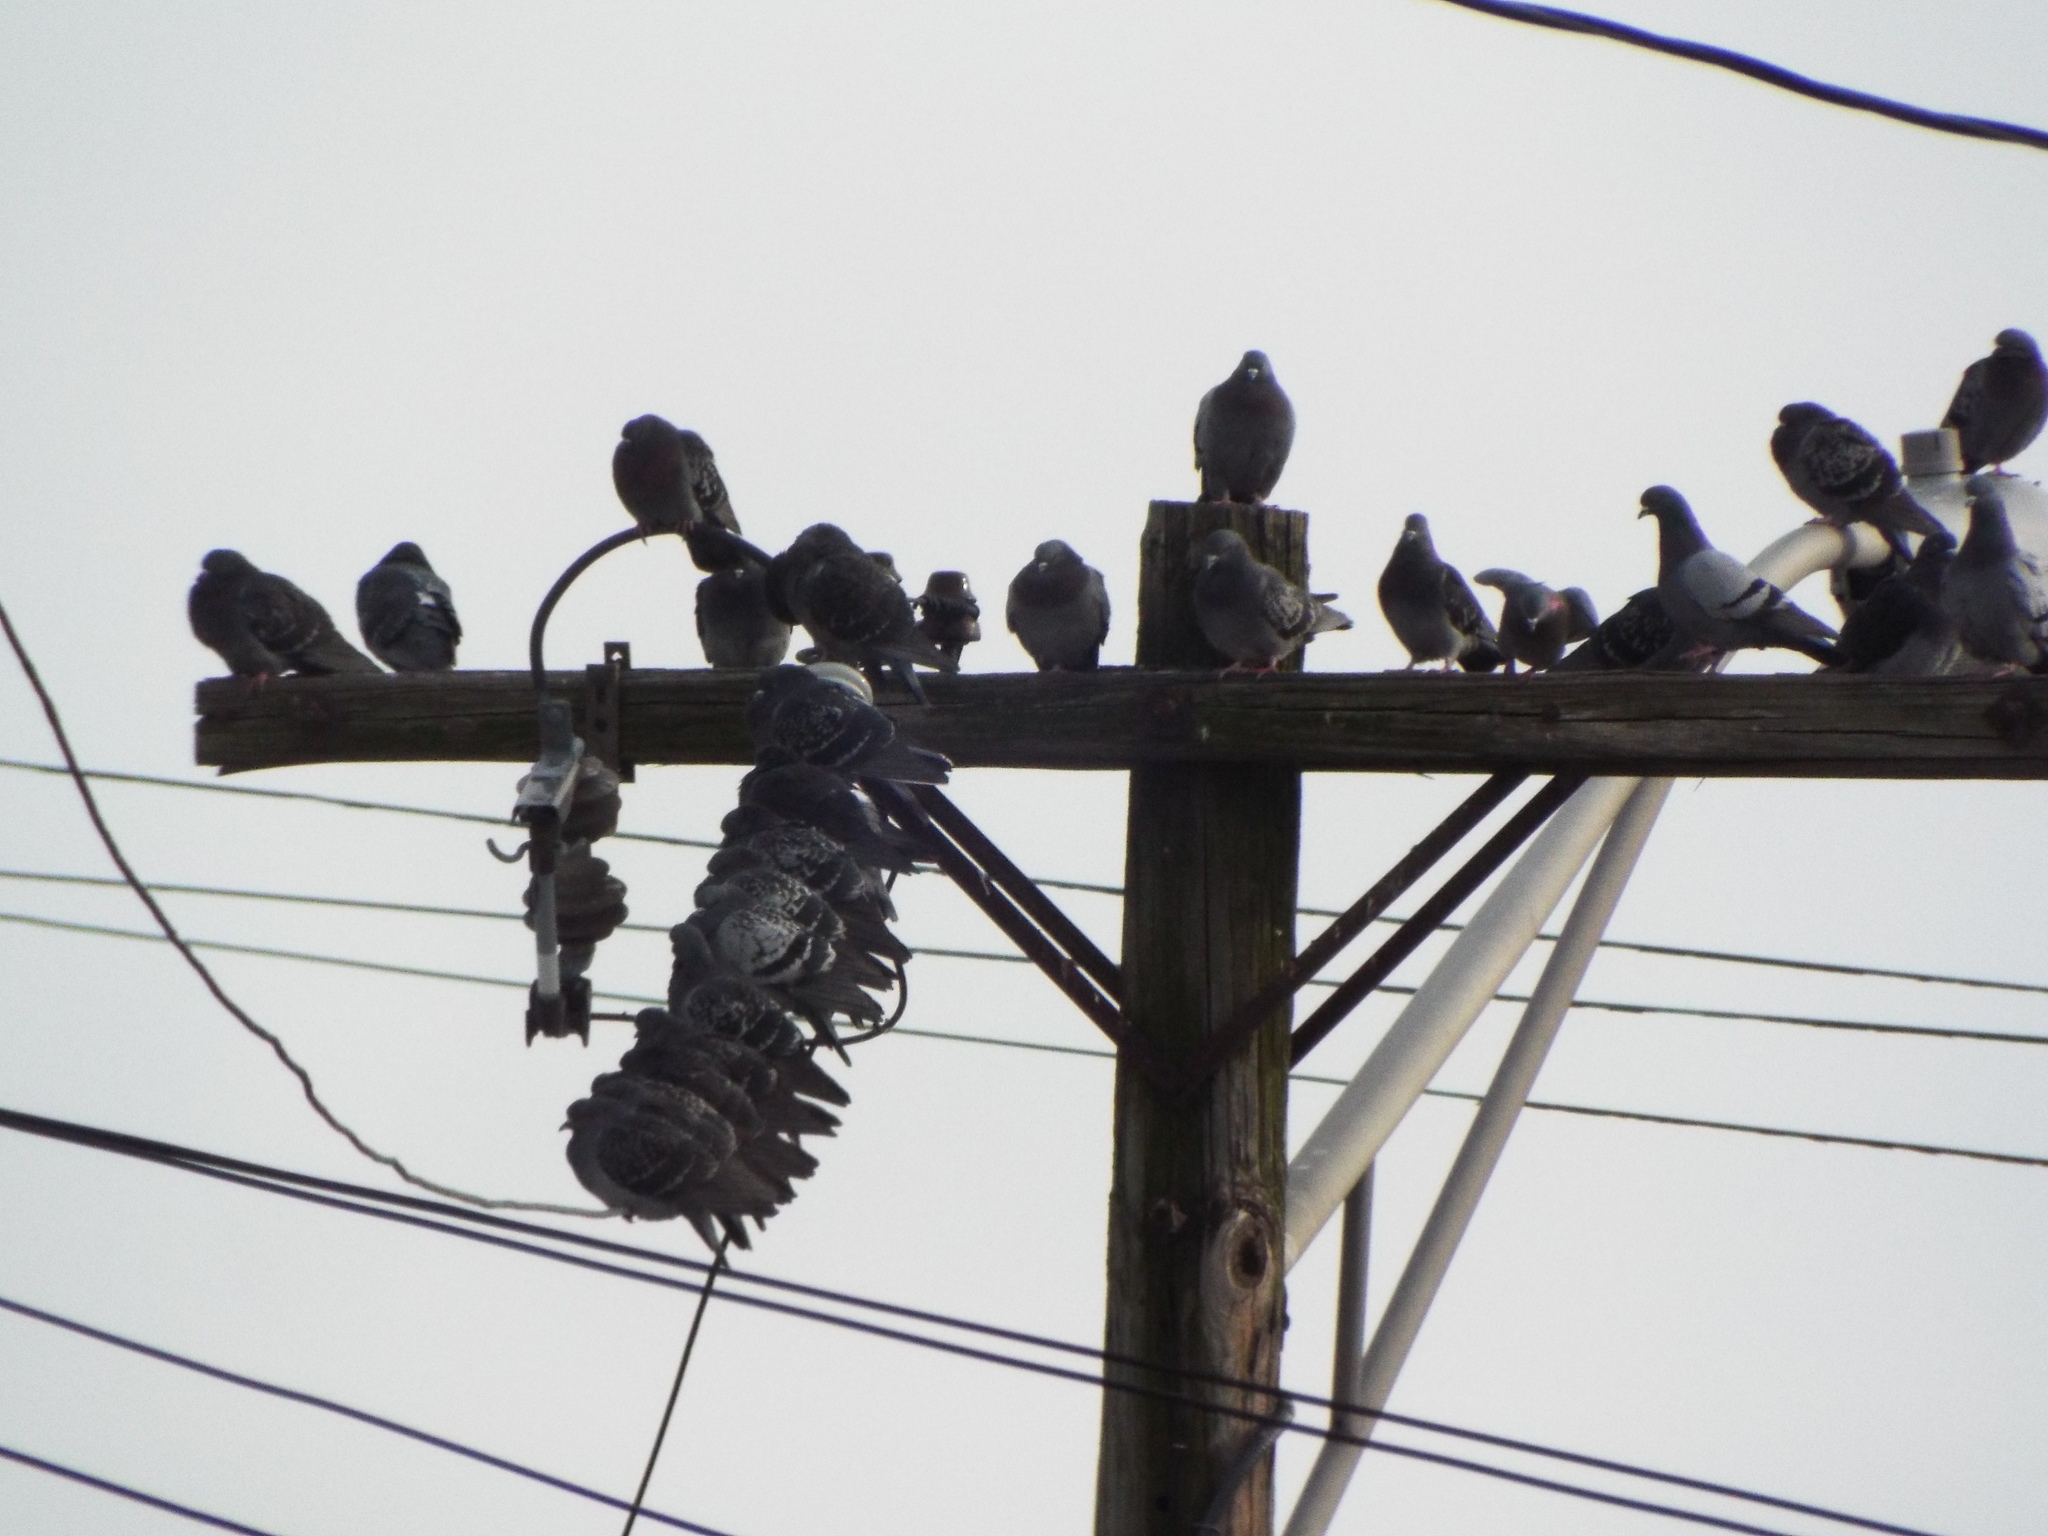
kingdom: Animalia
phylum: Chordata
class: Aves
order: Columbiformes
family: Columbidae
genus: Columba
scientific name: Columba livia
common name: Rock pigeon
